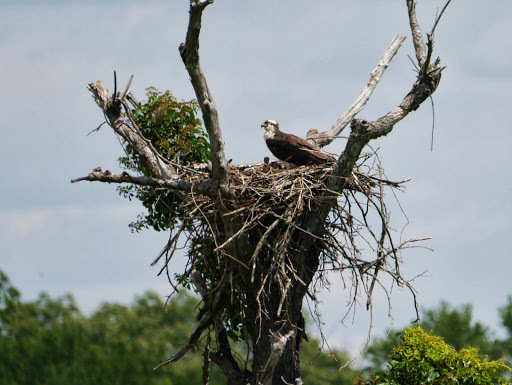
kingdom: Animalia
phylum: Chordata
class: Aves
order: Accipitriformes
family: Pandionidae
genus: Pandion
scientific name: Pandion haliaetus
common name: Osprey
